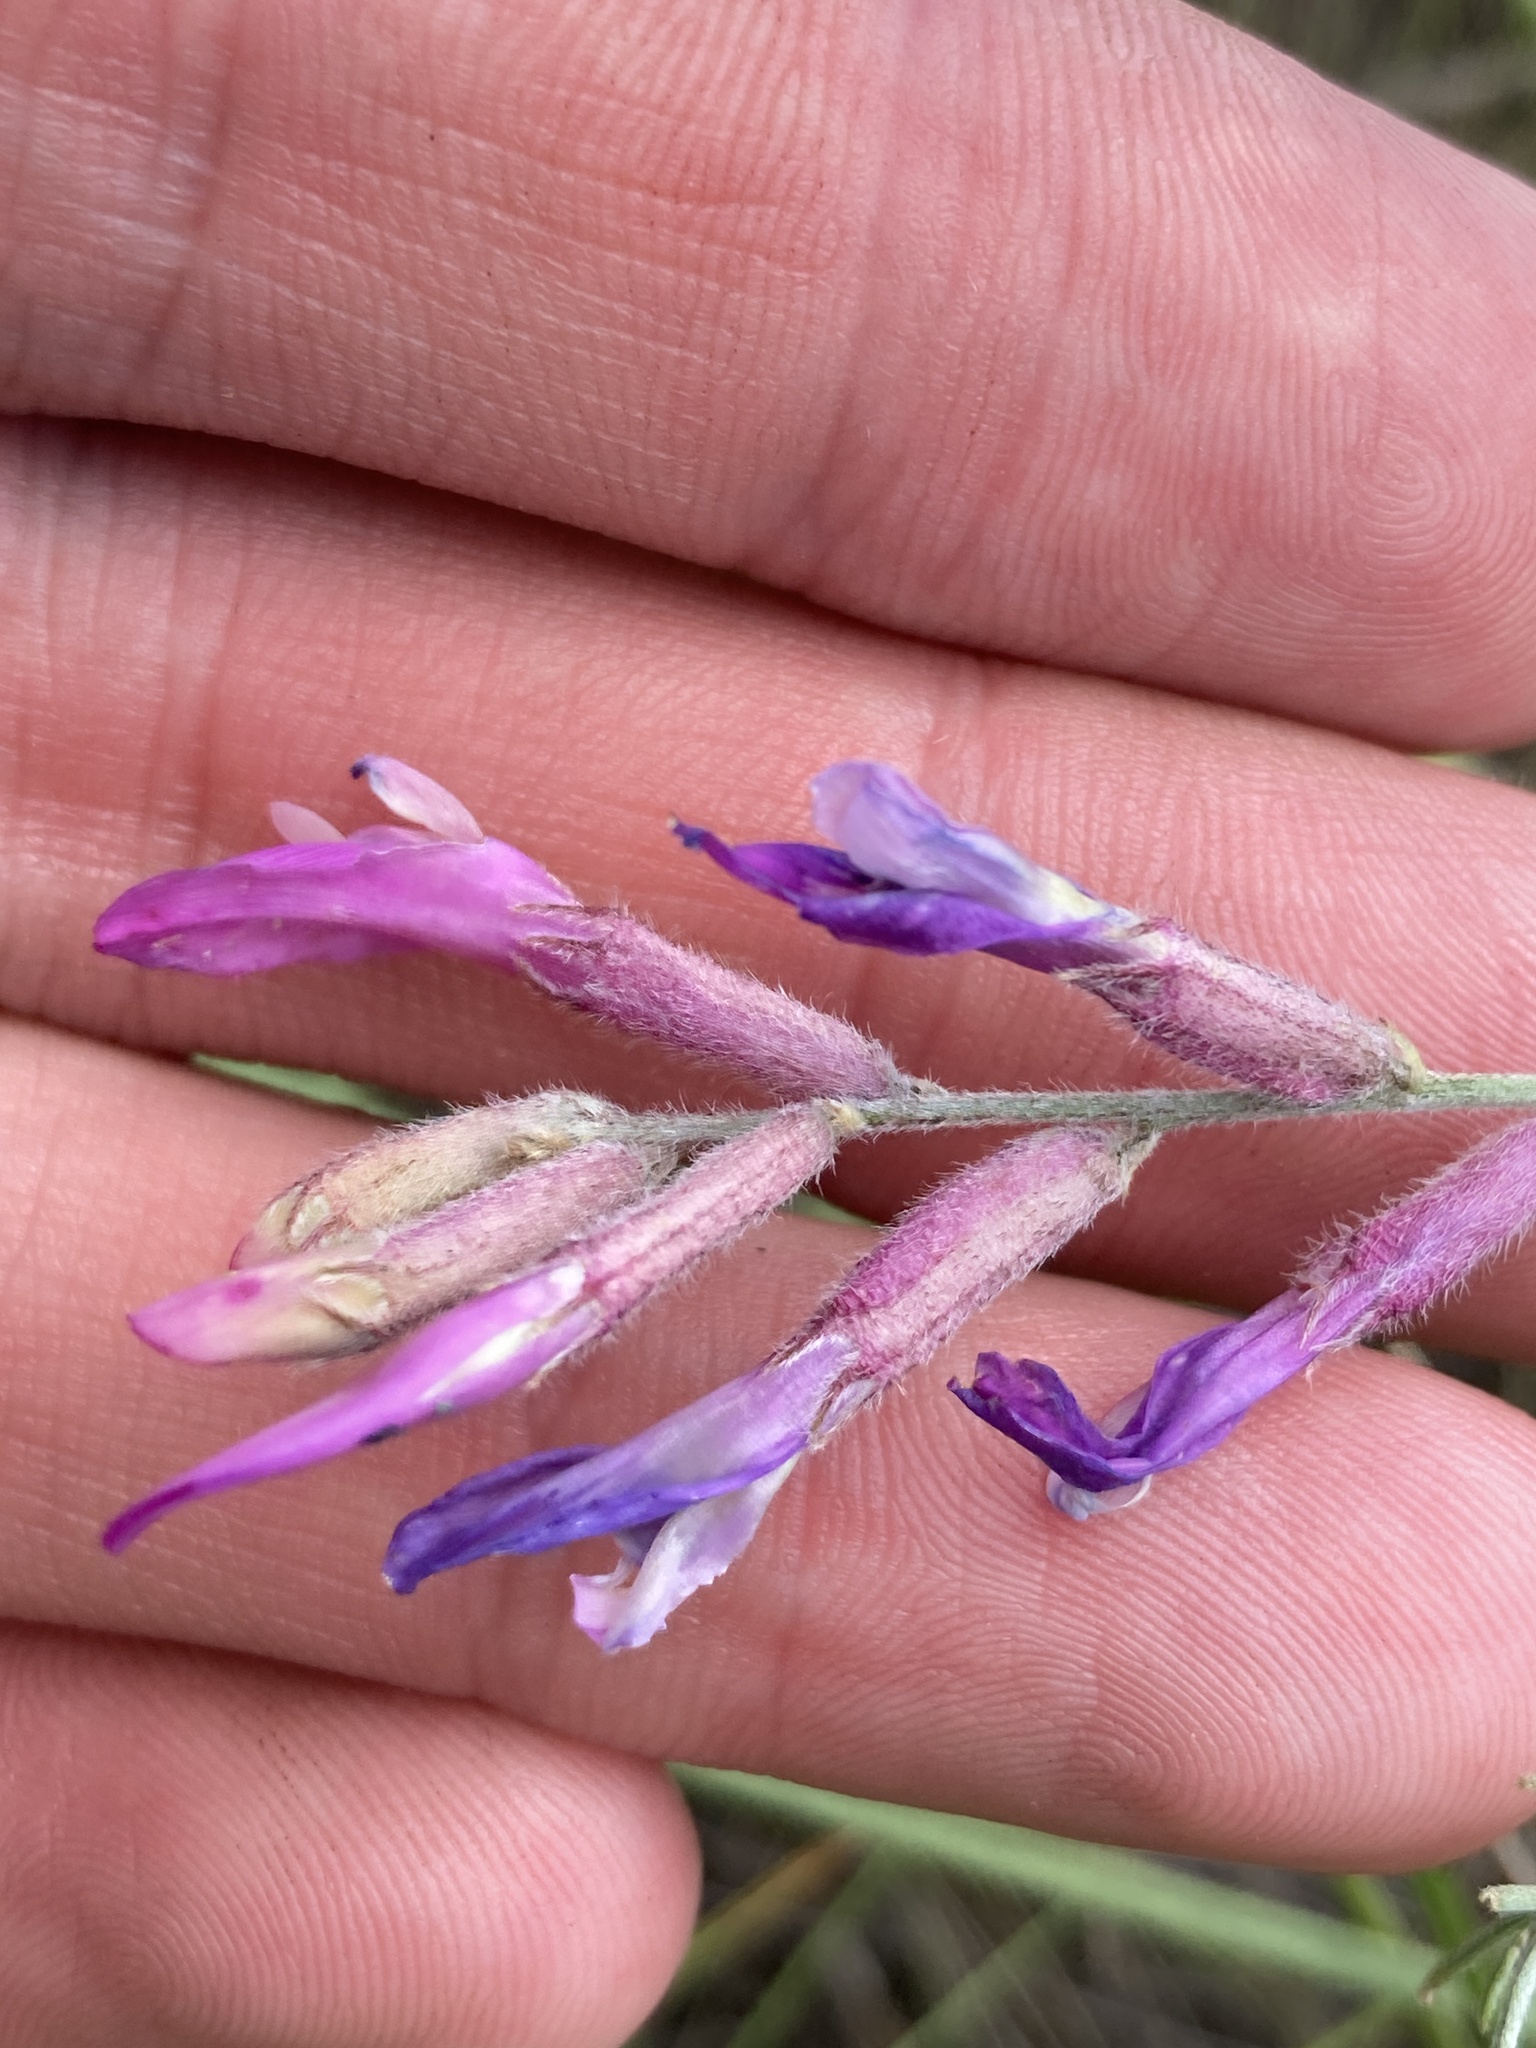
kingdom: Plantae
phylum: Tracheophyta
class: Magnoliopsida
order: Fabales
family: Fabaceae
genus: Astragalus
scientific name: Astragalus varius
